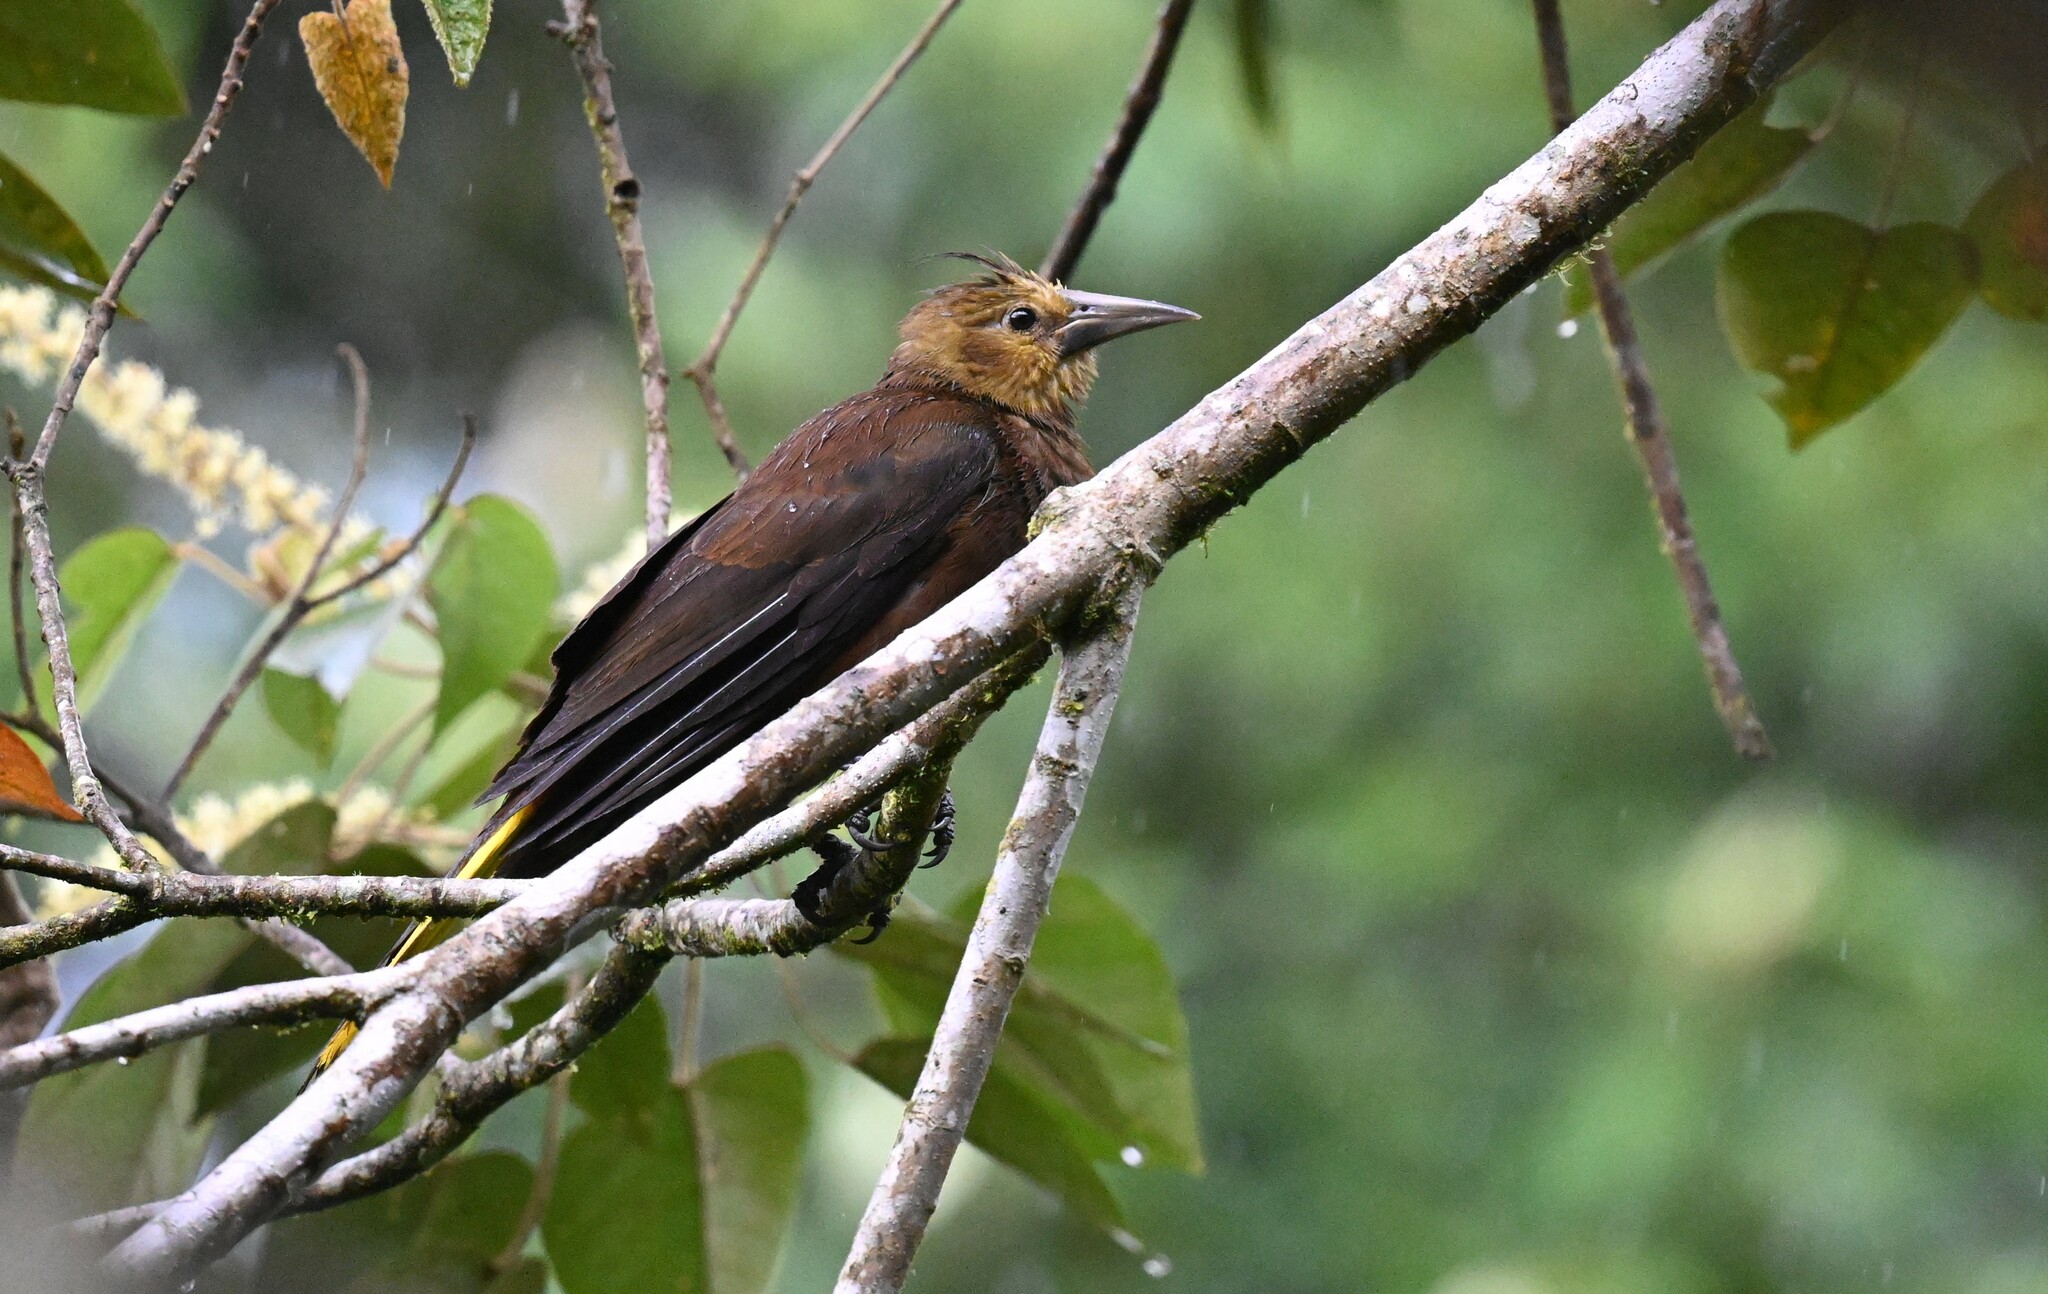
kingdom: Animalia
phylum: Chordata
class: Aves
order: Passeriformes
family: Icteridae
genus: Psarocolius
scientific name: Psarocolius angustifrons
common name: Russet-backed oropendola
